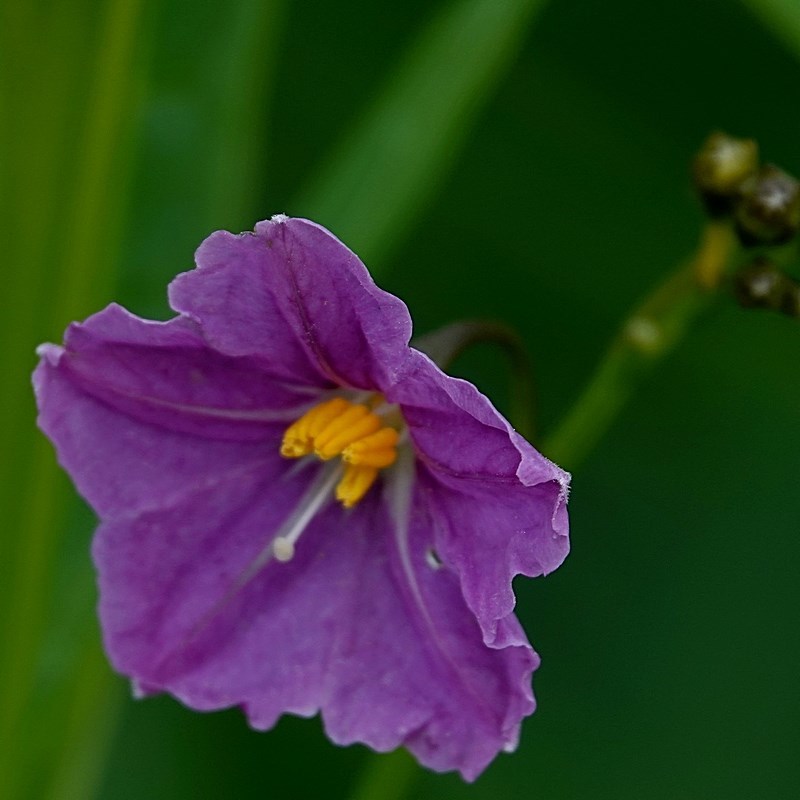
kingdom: Plantae
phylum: Tracheophyta
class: Magnoliopsida
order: Solanales
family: Solanaceae
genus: Solanum
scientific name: Solanum vescum
